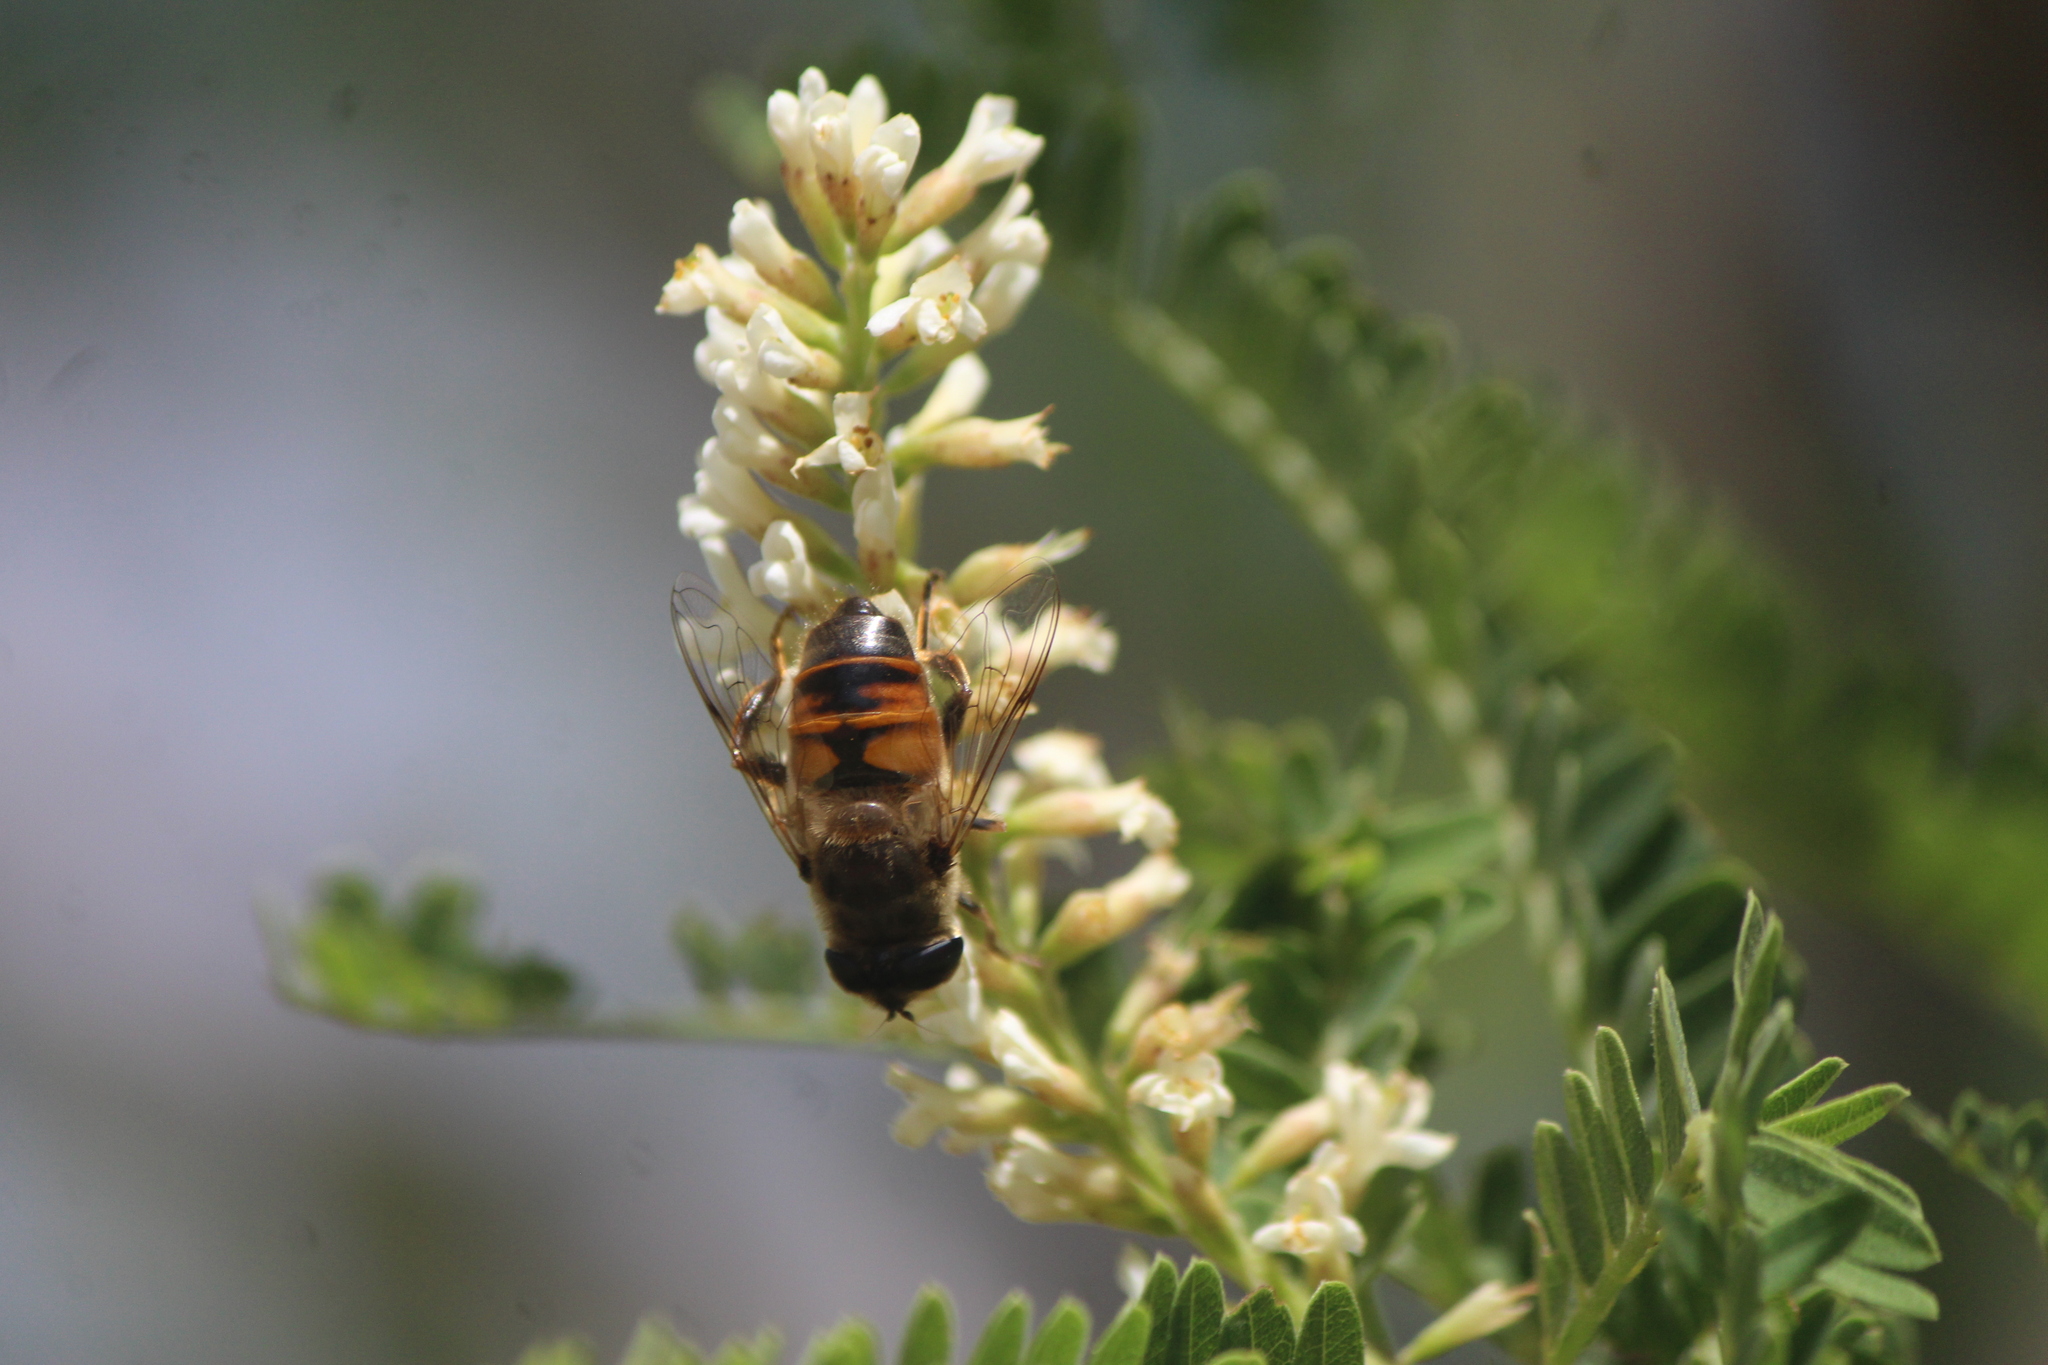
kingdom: Animalia
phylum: Arthropoda
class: Insecta
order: Diptera
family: Syrphidae
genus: Eristalis
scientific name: Eristalis tenax
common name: Drone fly
